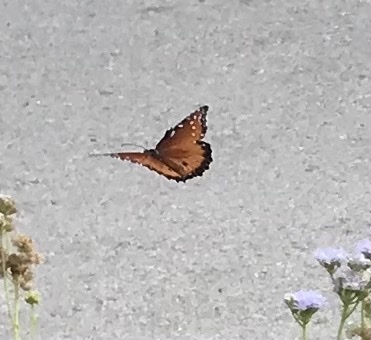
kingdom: Animalia
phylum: Arthropoda
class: Insecta
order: Lepidoptera
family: Nymphalidae
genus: Danaus
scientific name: Danaus gilippus
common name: Queen
